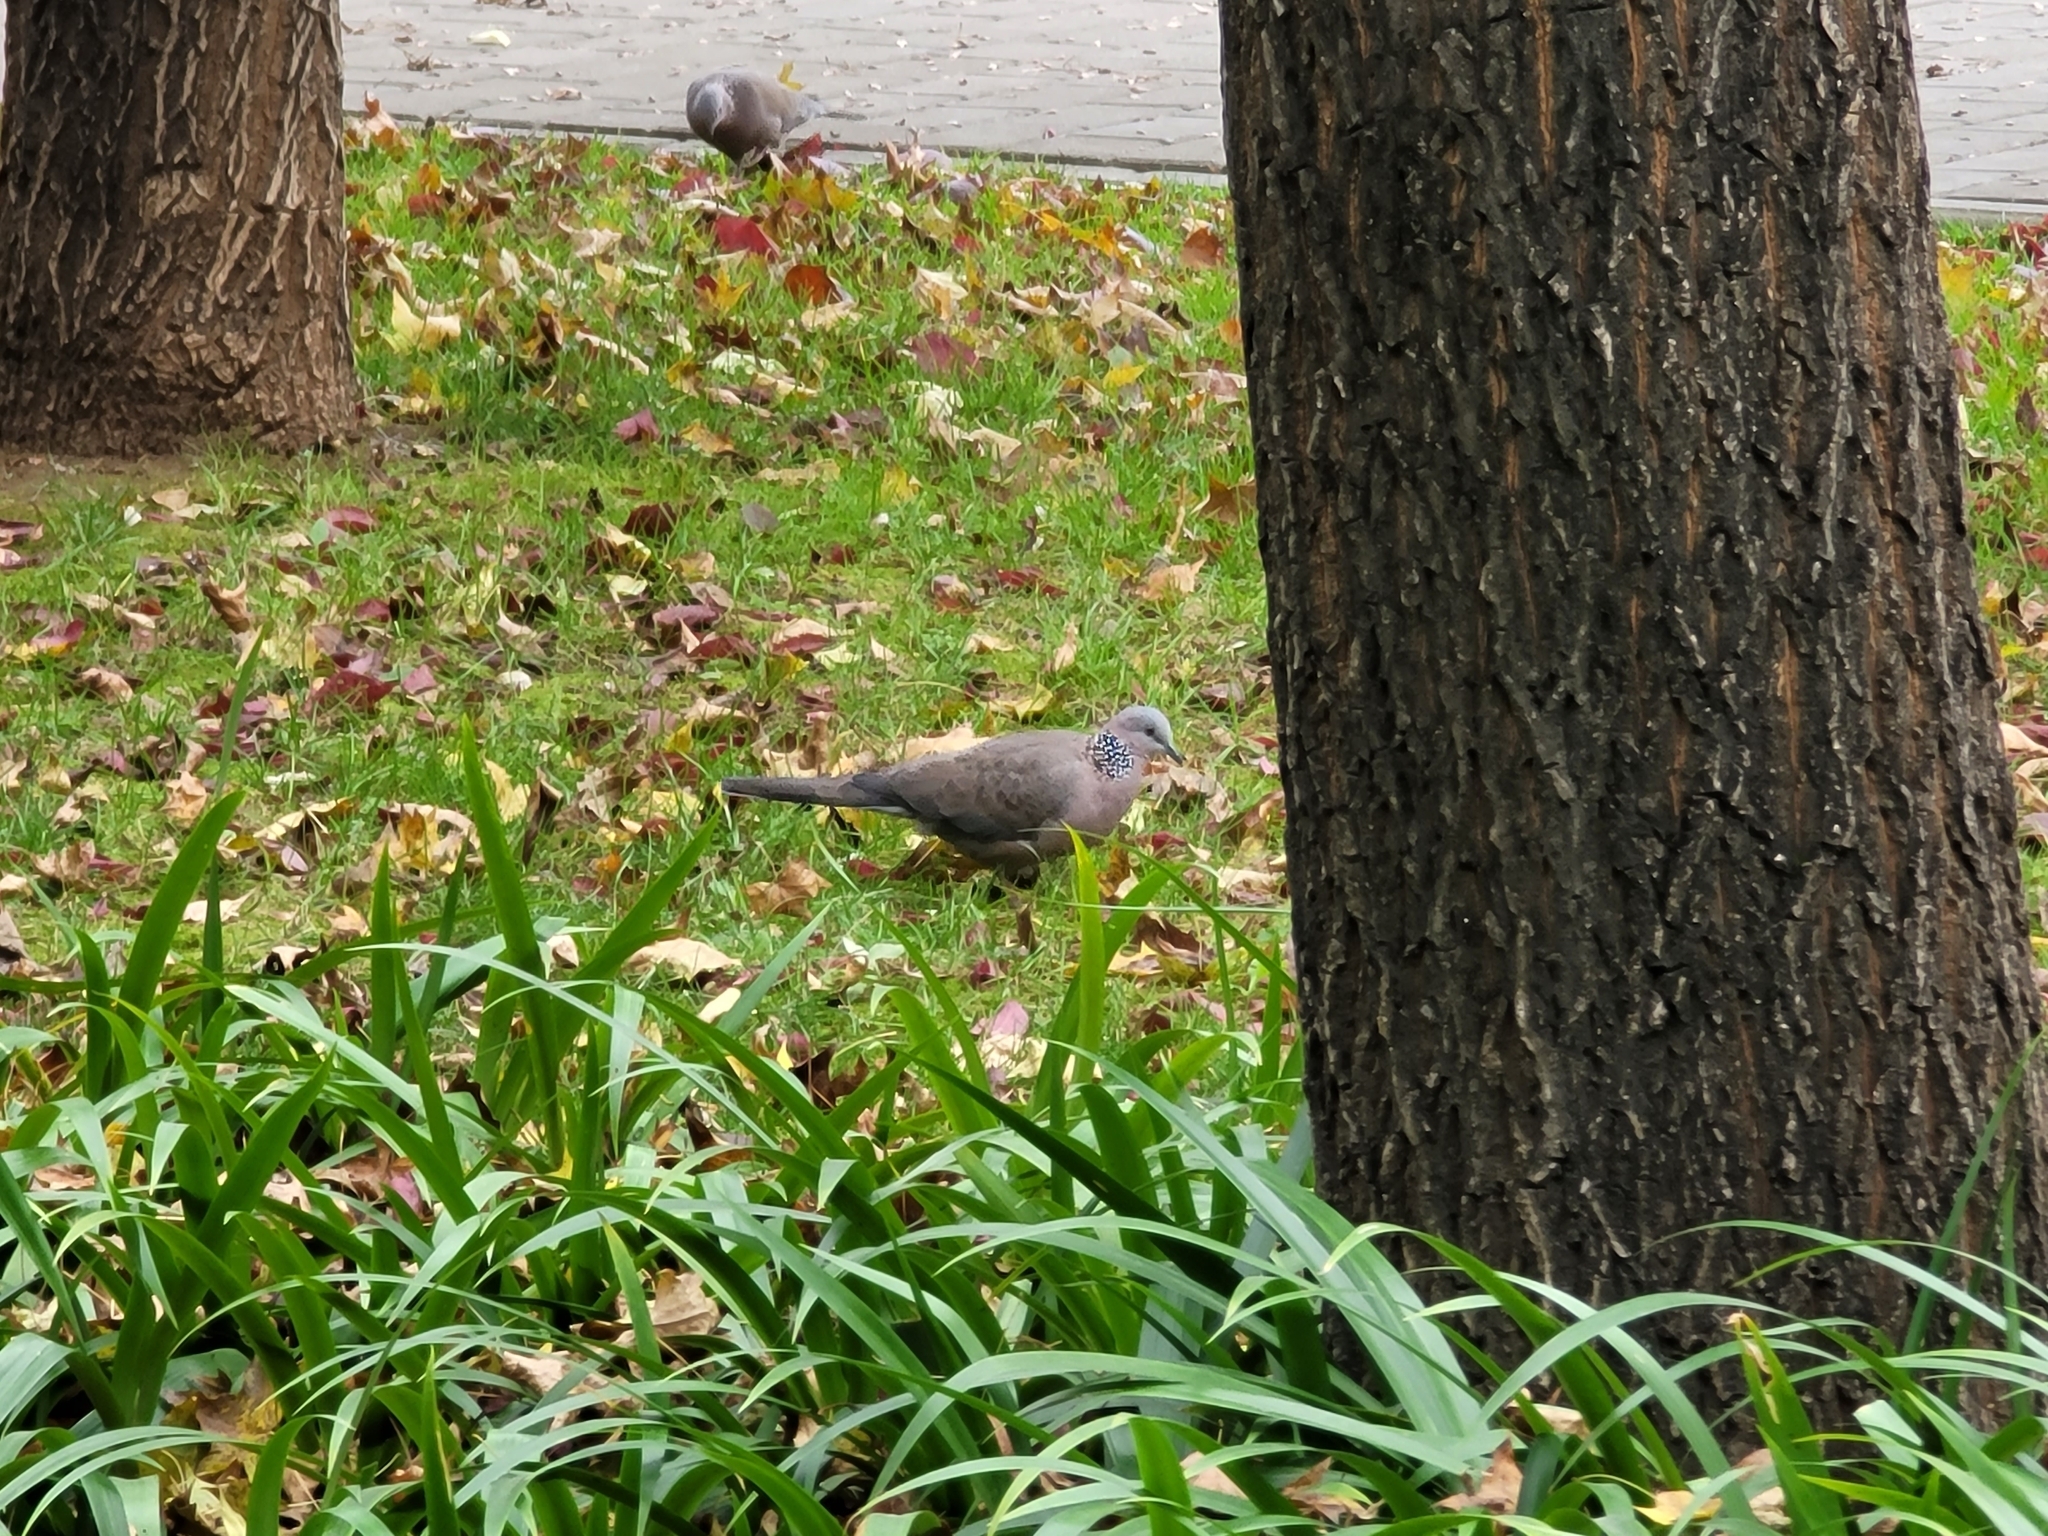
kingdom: Animalia
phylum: Chordata
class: Aves
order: Columbiformes
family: Columbidae
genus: Spilopelia
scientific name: Spilopelia chinensis
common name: Spotted dove
